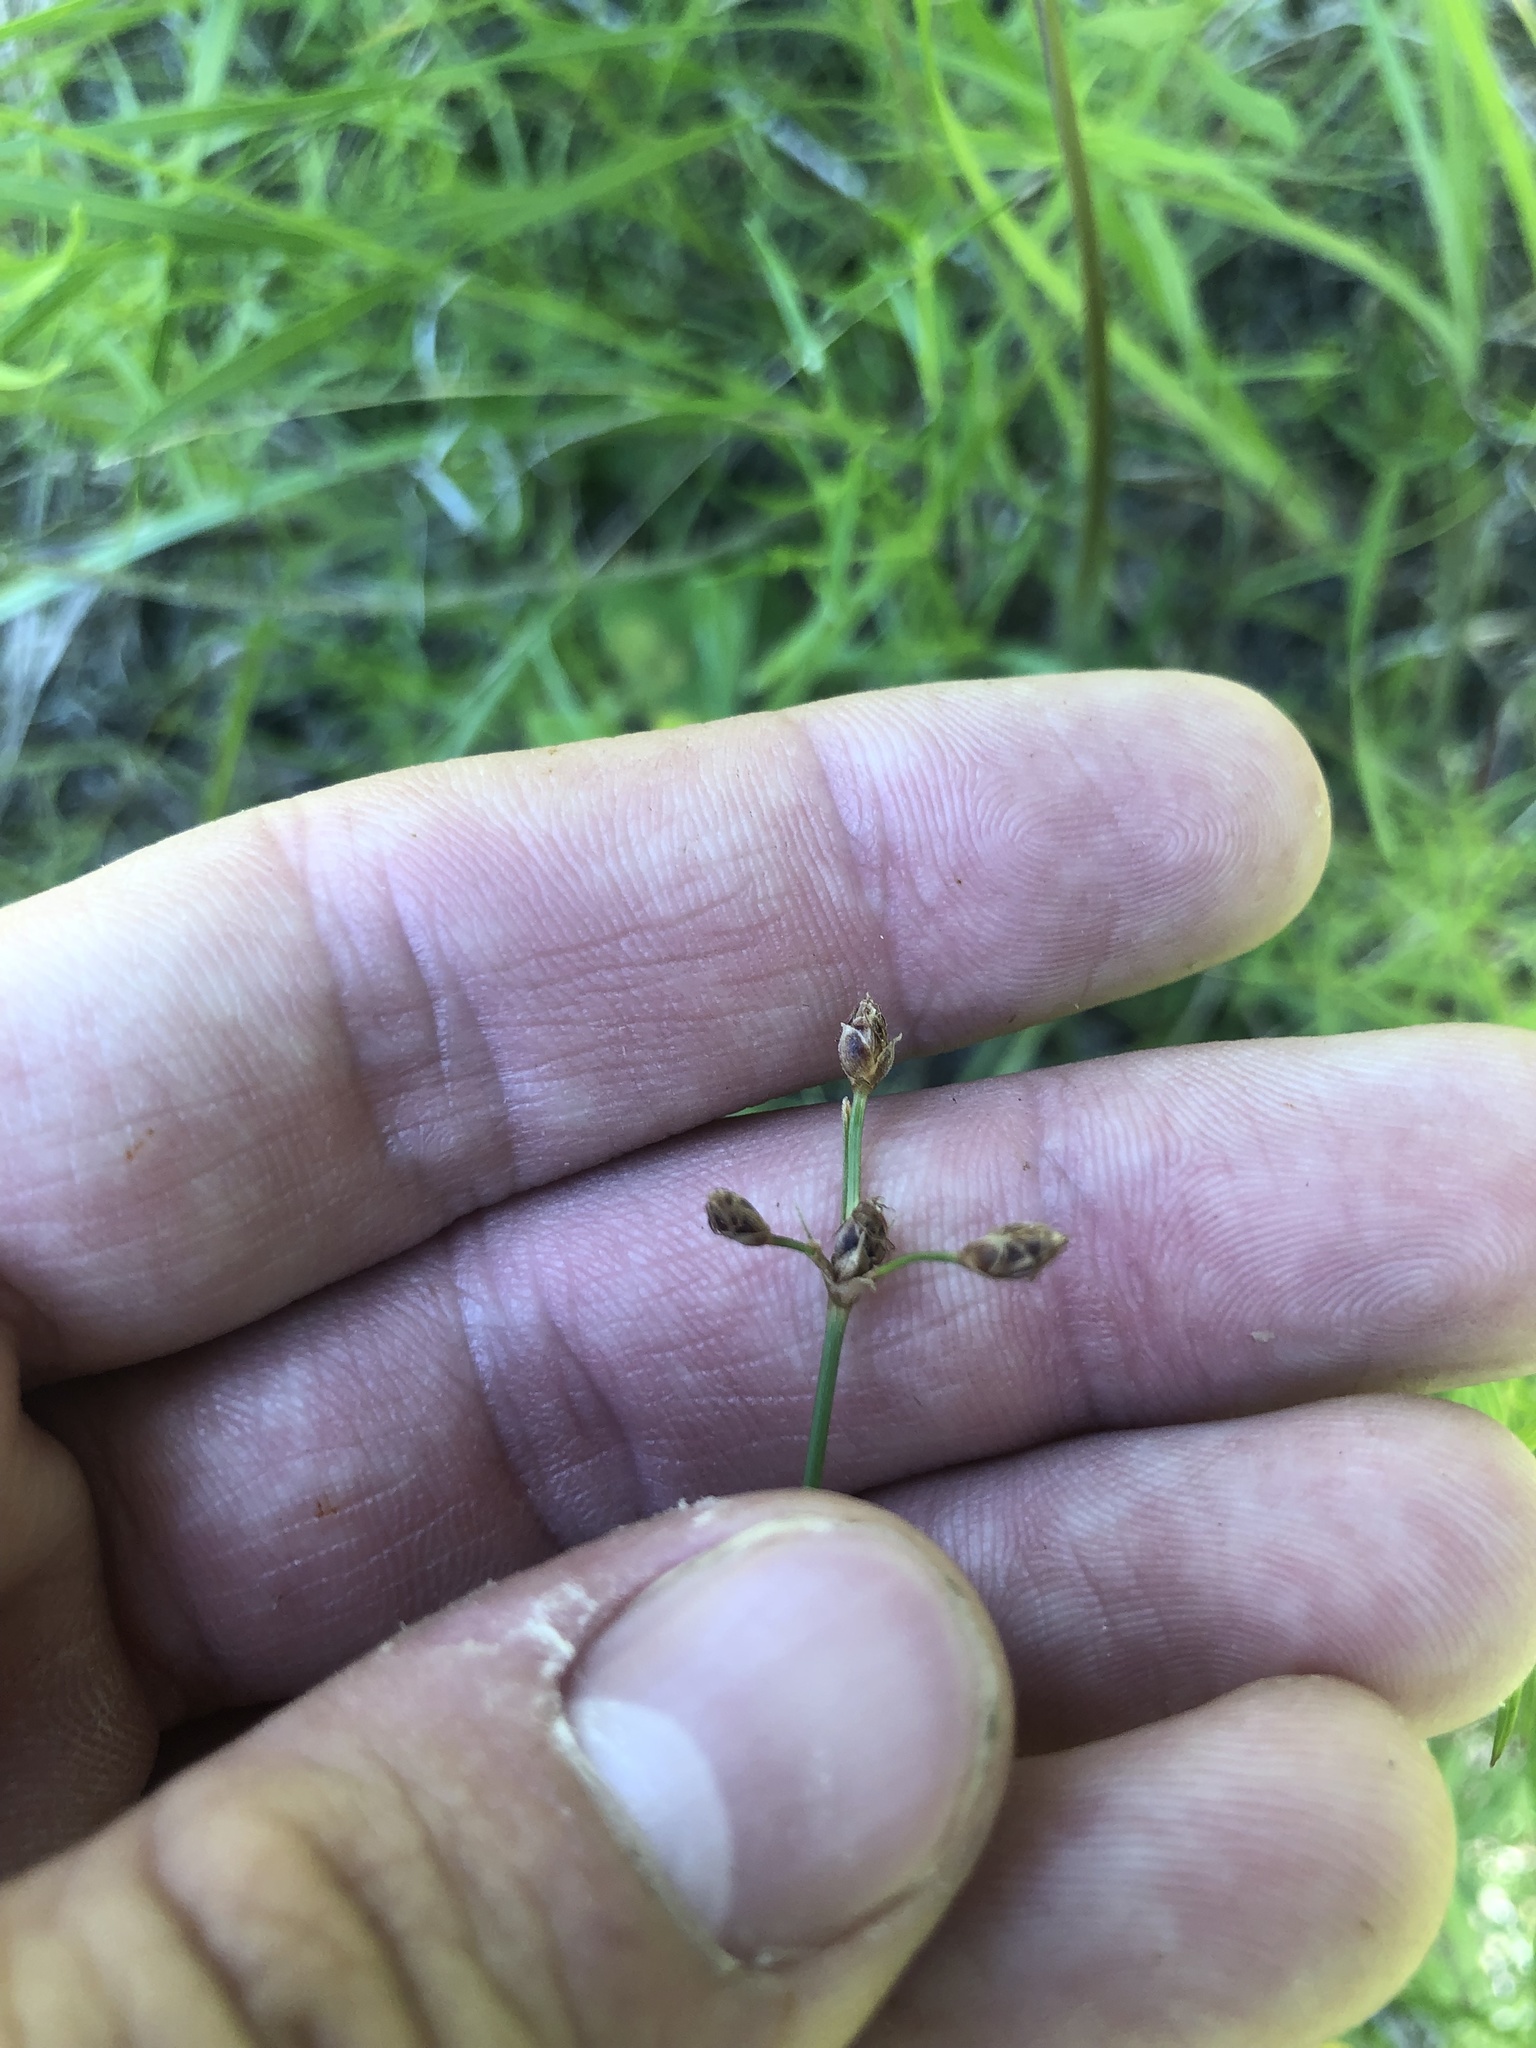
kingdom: Plantae
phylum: Tracheophyta
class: Liliopsida
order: Poales
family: Cyperaceae
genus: Fimbristylis
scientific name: Fimbristylis puberula
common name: Hairy fimbristylis
